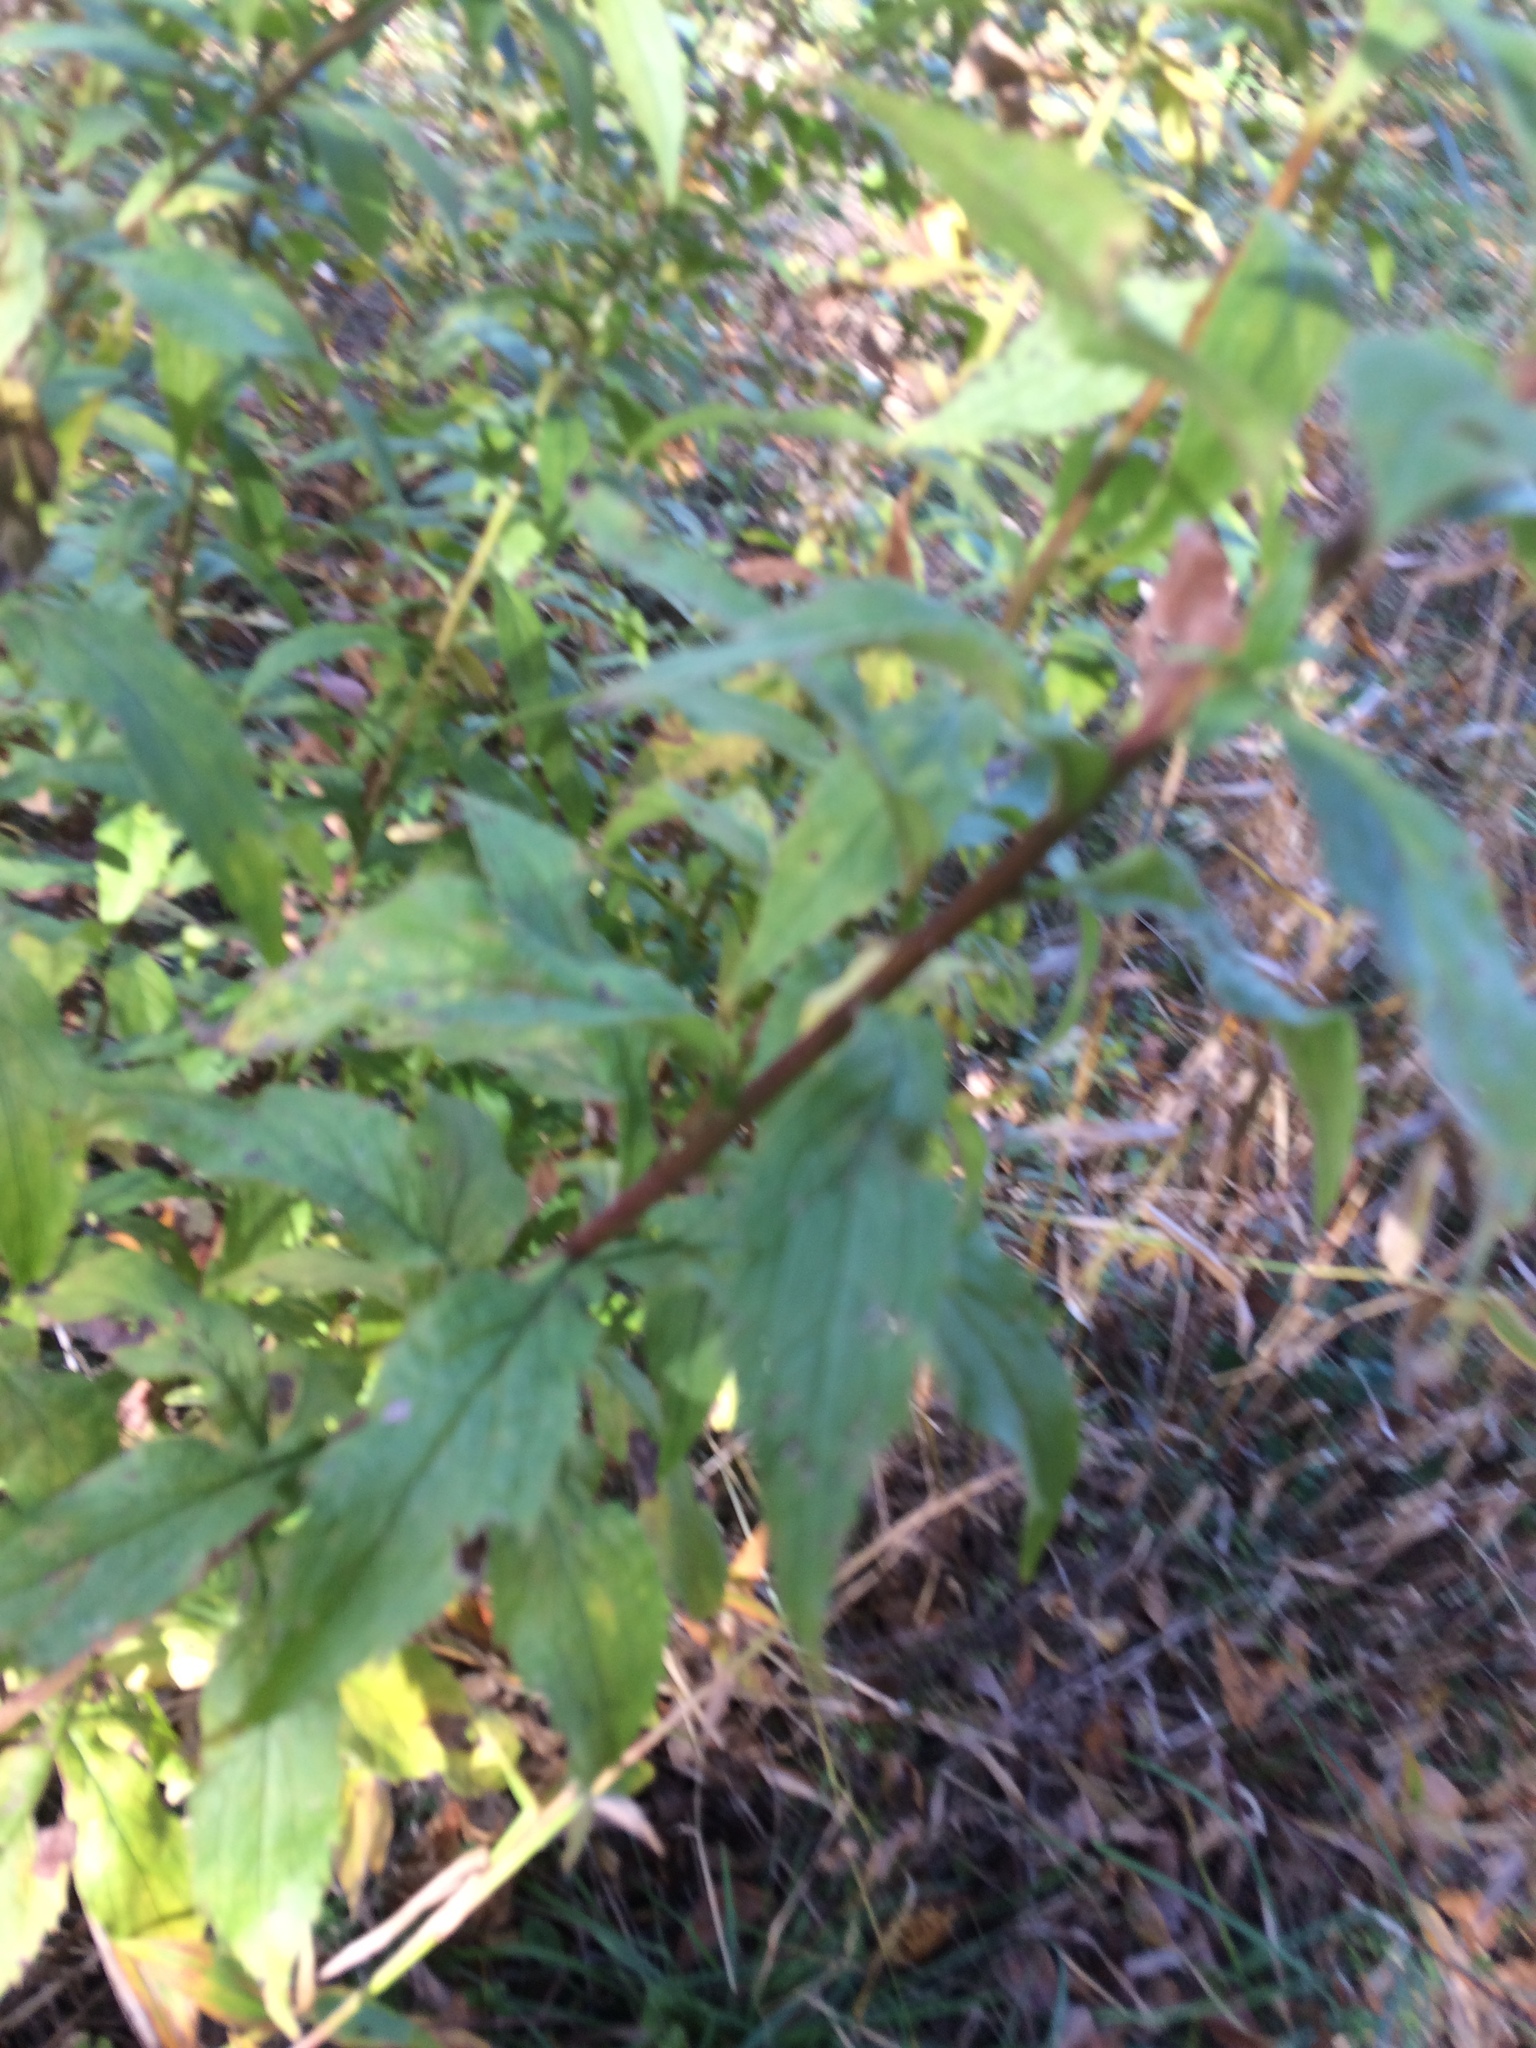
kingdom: Plantae
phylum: Tracheophyta
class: Magnoliopsida
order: Asterales
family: Asteraceae
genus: Solidago
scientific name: Solidago rugosa
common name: Rough-stemmed goldenrod
